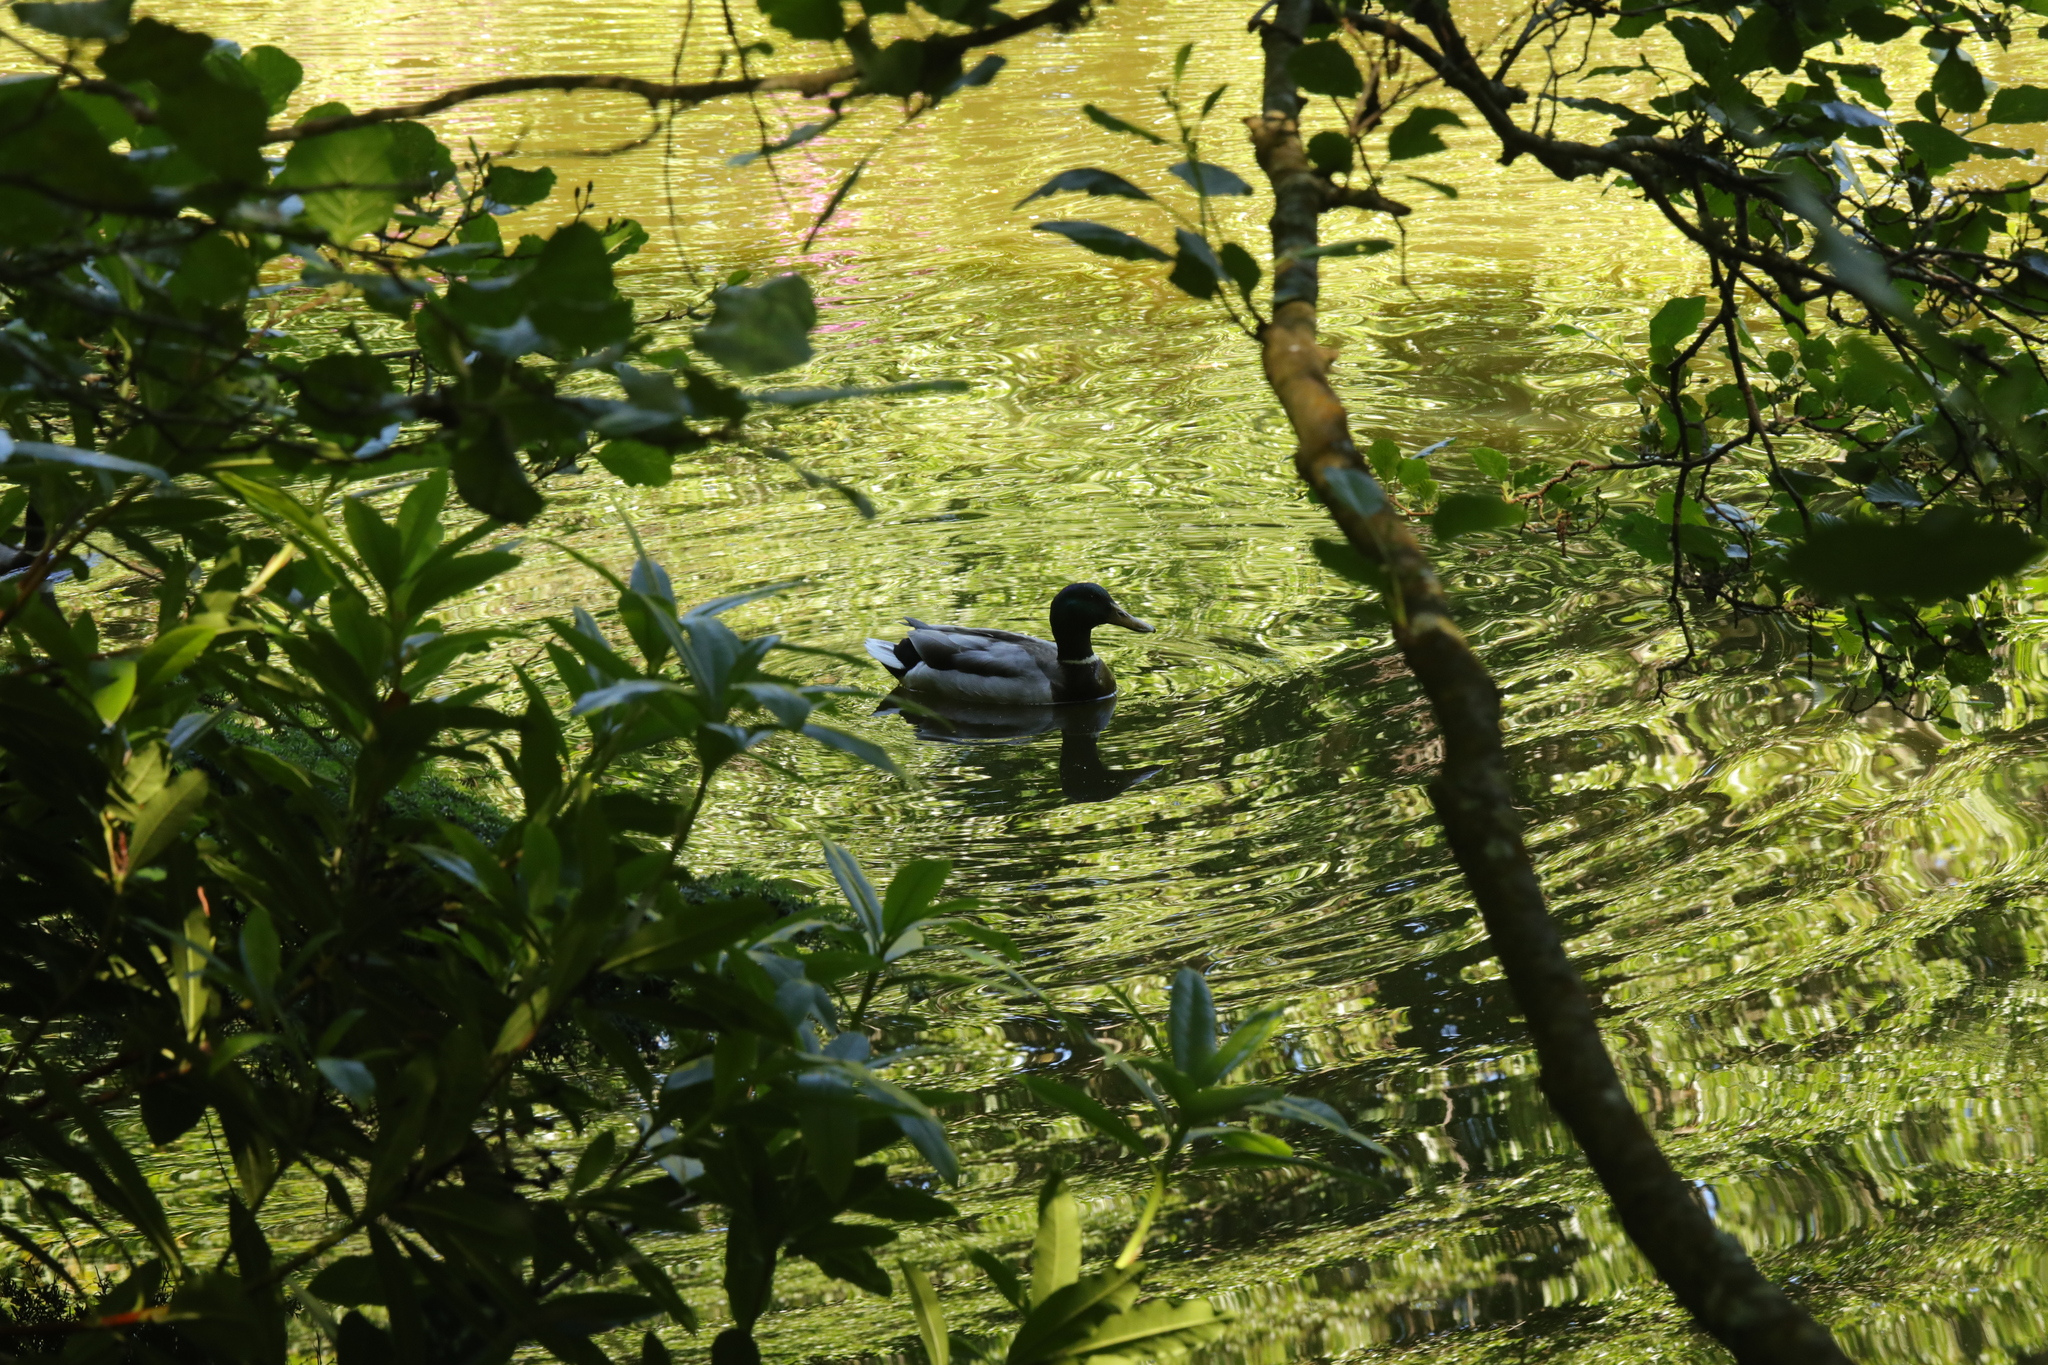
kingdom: Animalia
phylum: Chordata
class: Aves
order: Anseriformes
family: Anatidae
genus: Anas
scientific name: Anas platyrhynchos
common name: Mallard
